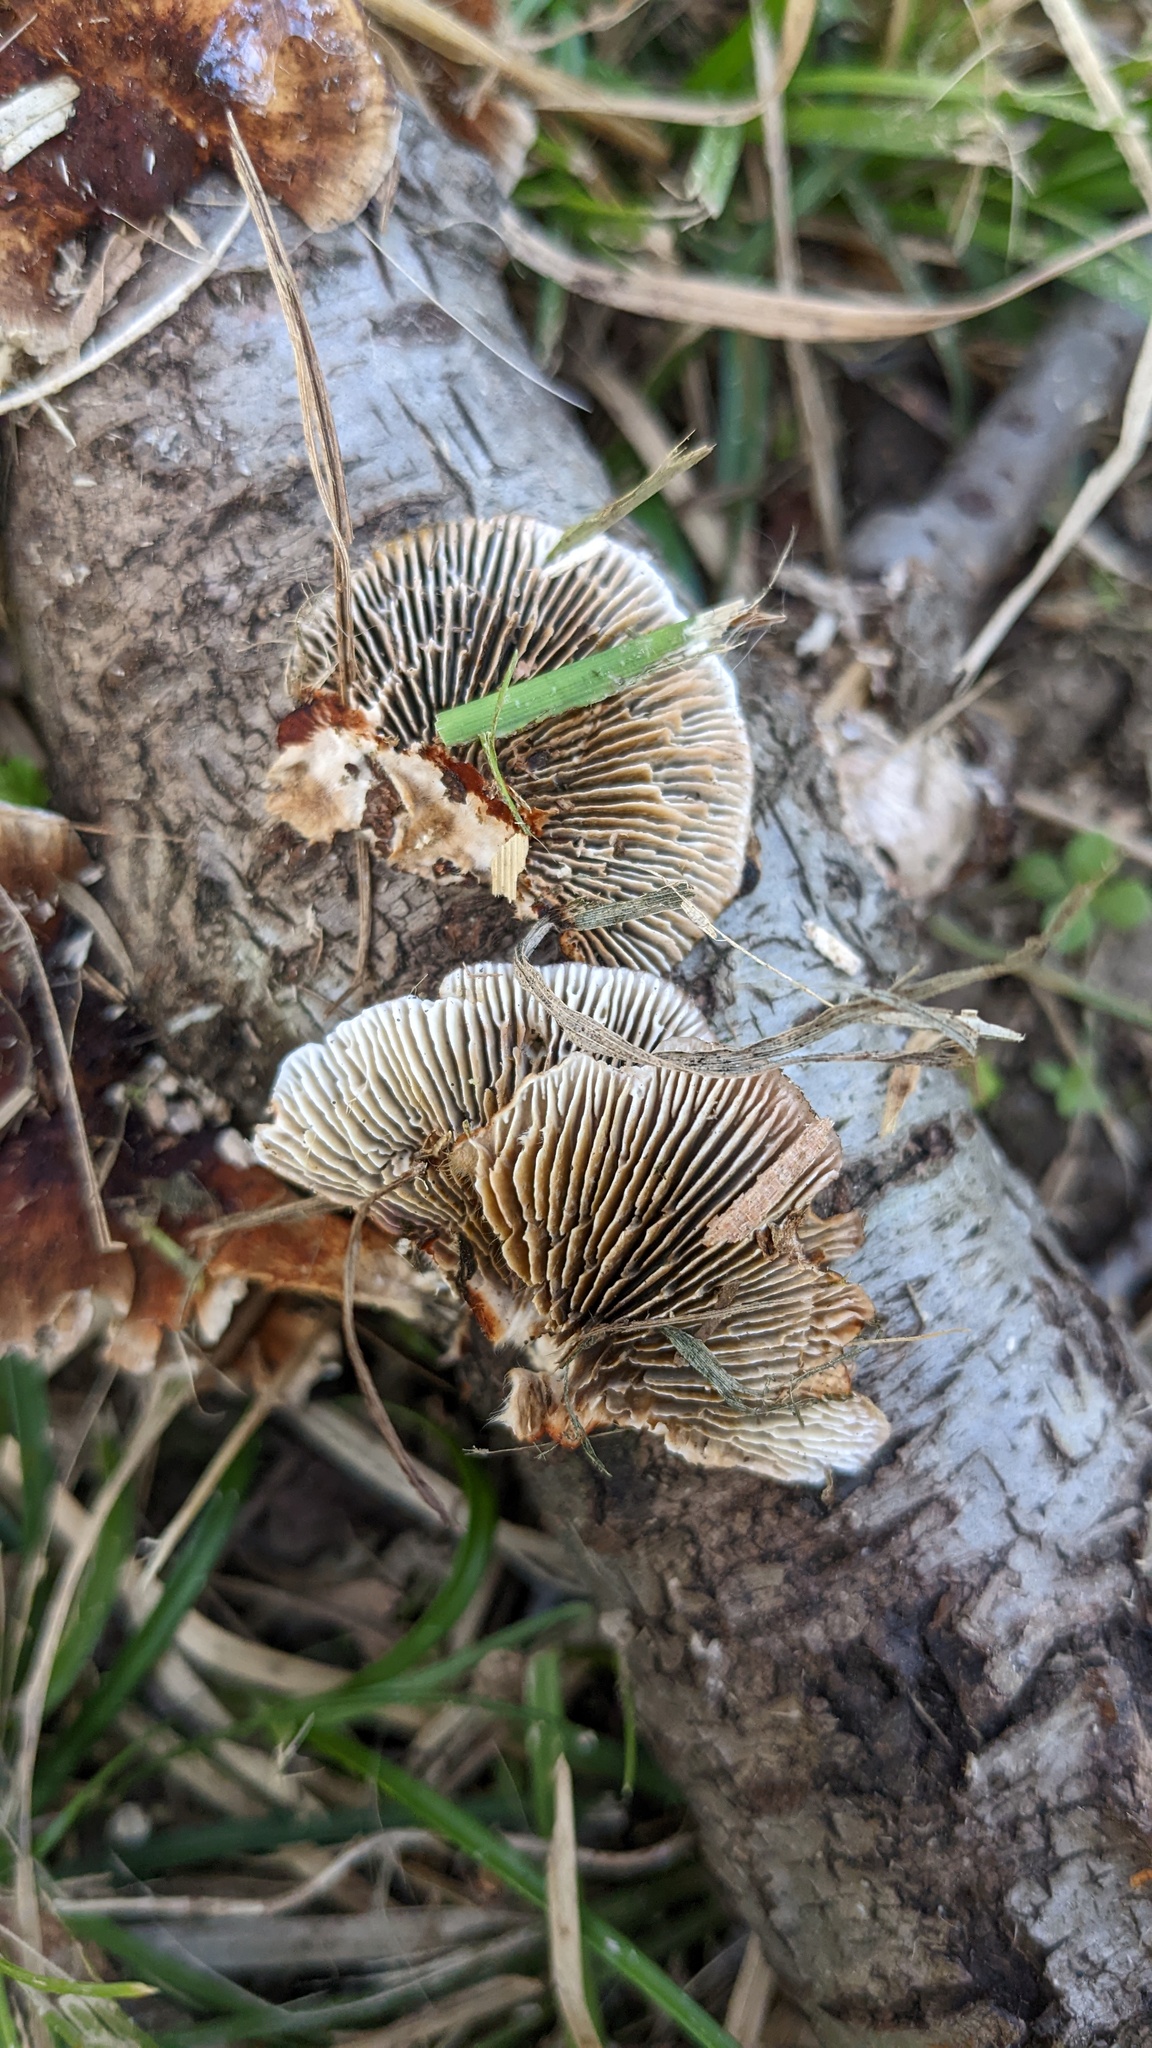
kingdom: Fungi
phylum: Basidiomycota
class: Agaricomycetes
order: Polyporales
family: Polyporaceae
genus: Daedaleopsis
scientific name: Daedaleopsis tricolor
